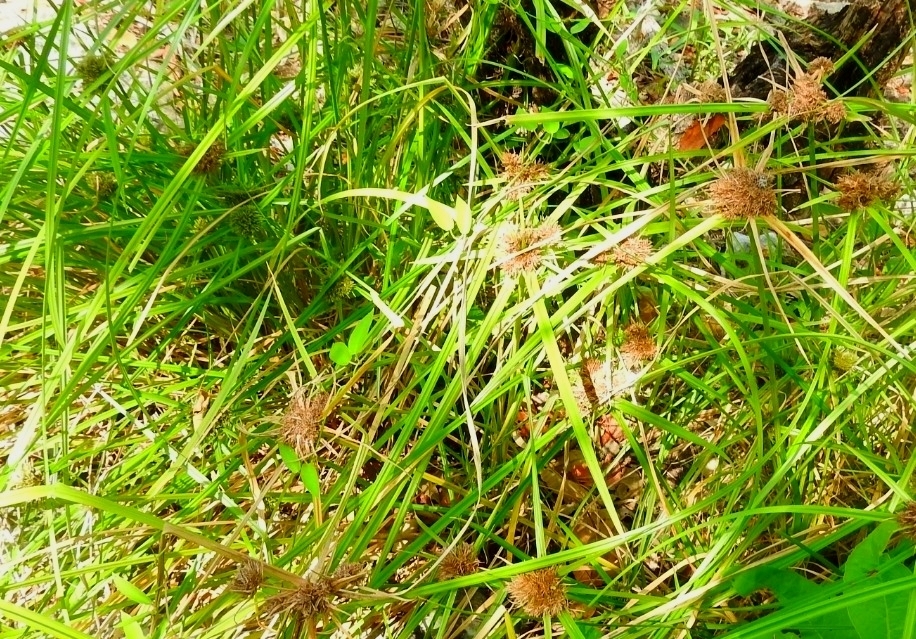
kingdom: Plantae
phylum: Tracheophyta
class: Liliopsida
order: Poales
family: Cyperaceae
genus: Cyperus
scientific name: Cyperus ligularis
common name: Swamp flat sedge
